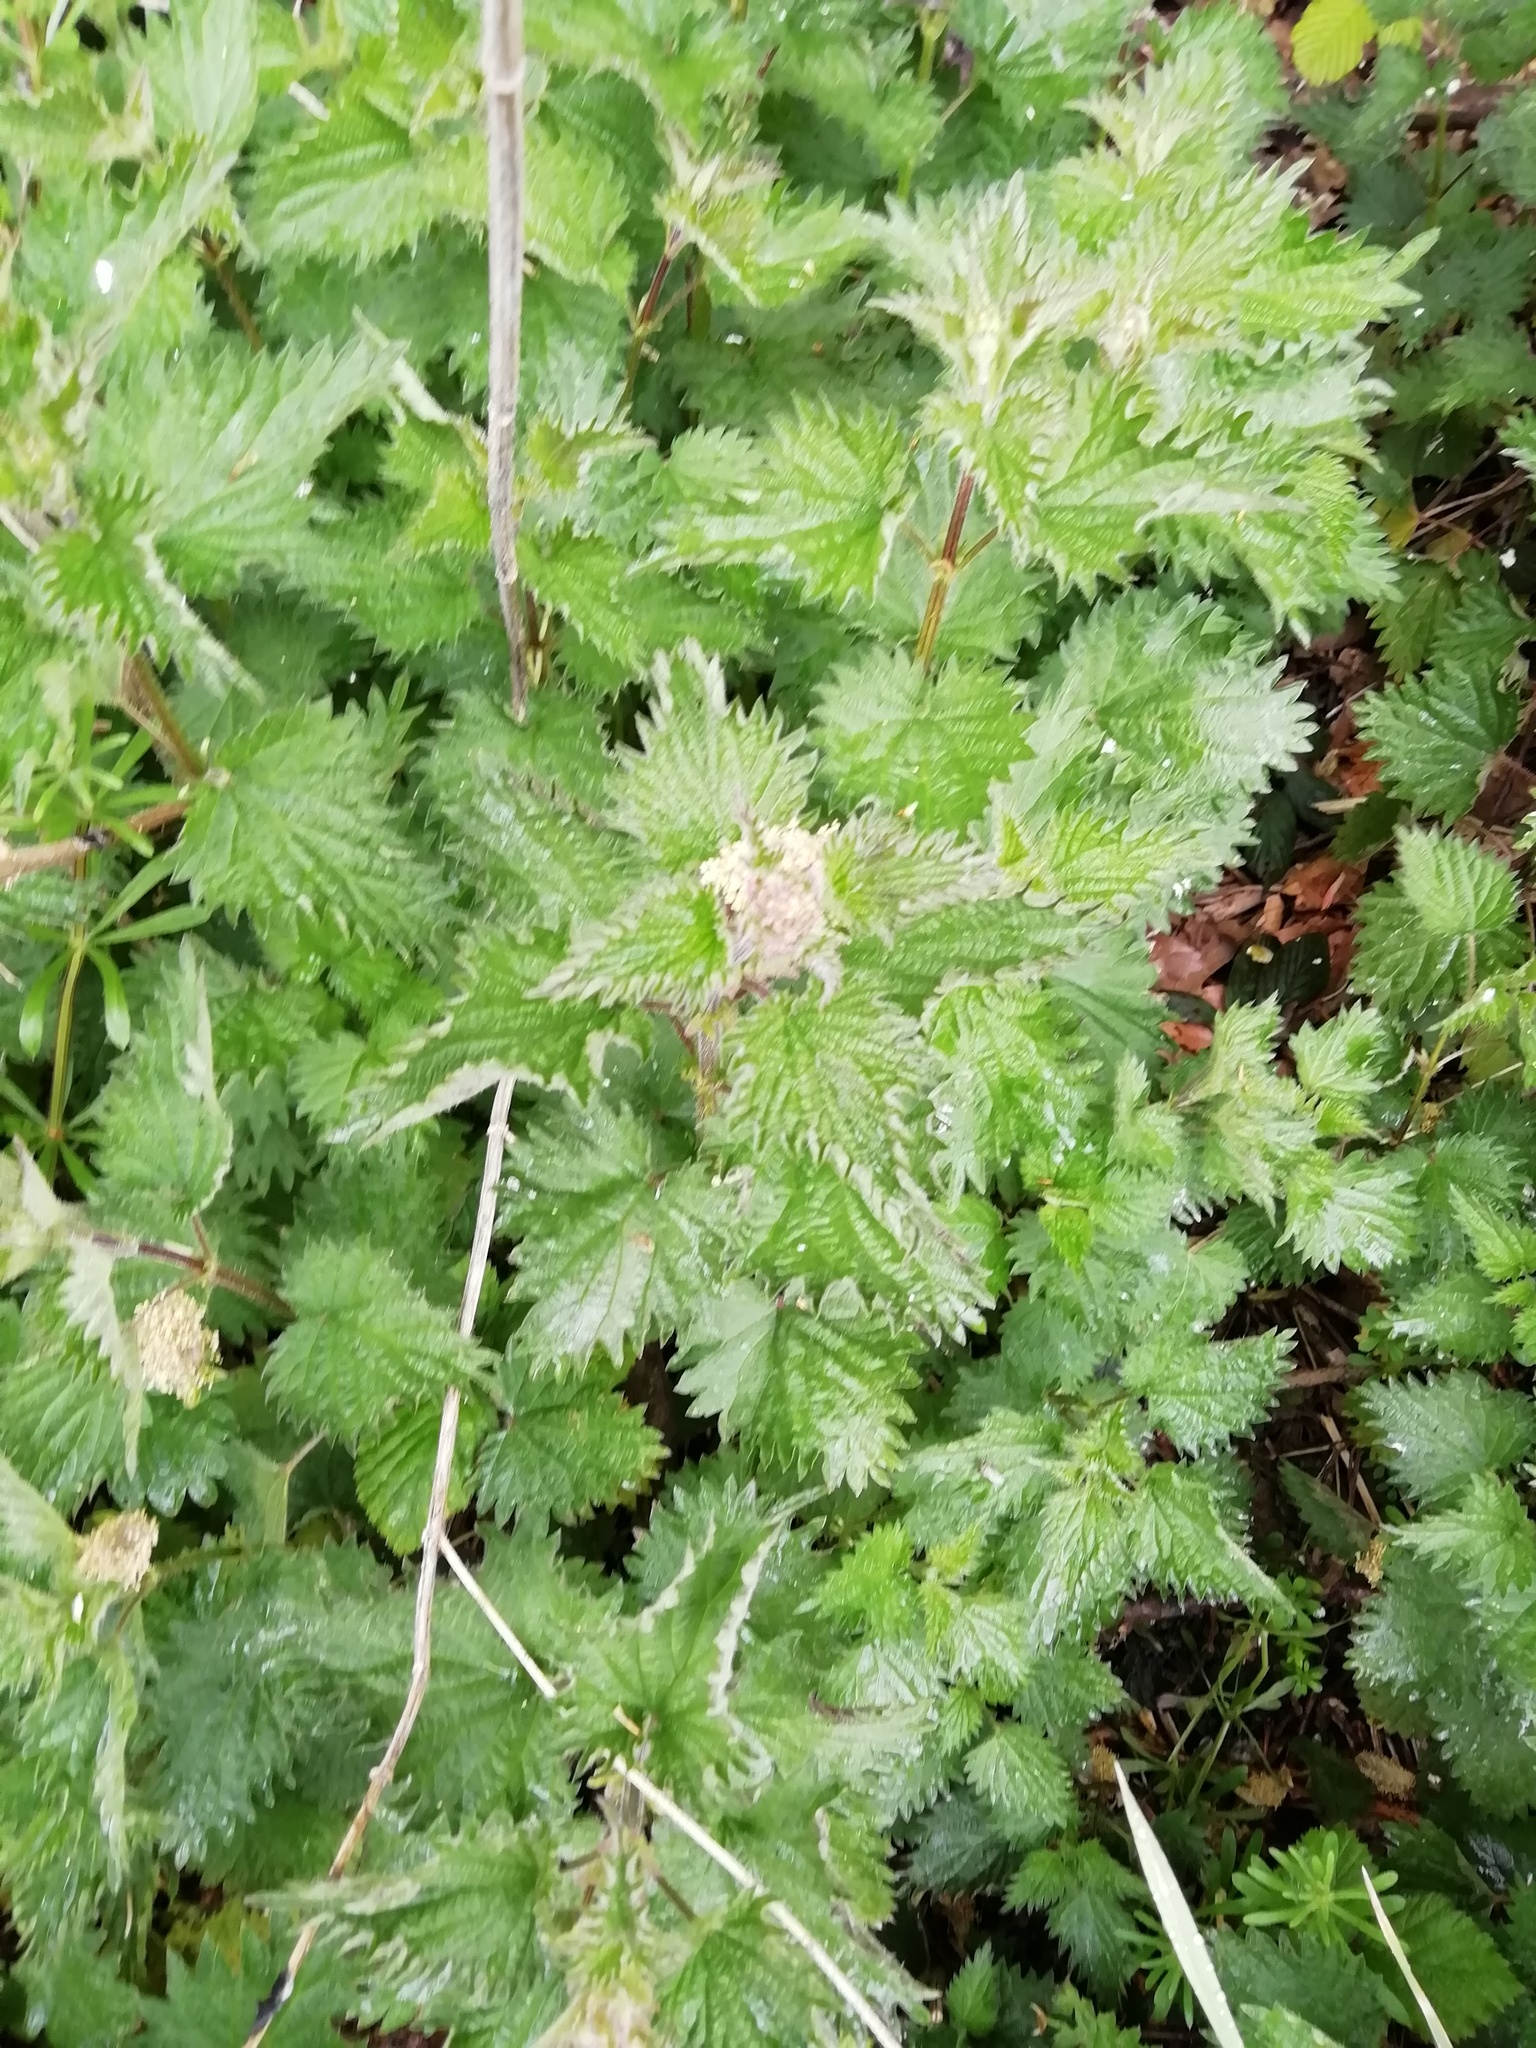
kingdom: Plantae
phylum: Tracheophyta
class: Magnoliopsida
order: Rosales
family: Urticaceae
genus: Urtica
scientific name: Urtica dioica
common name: Common nettle
